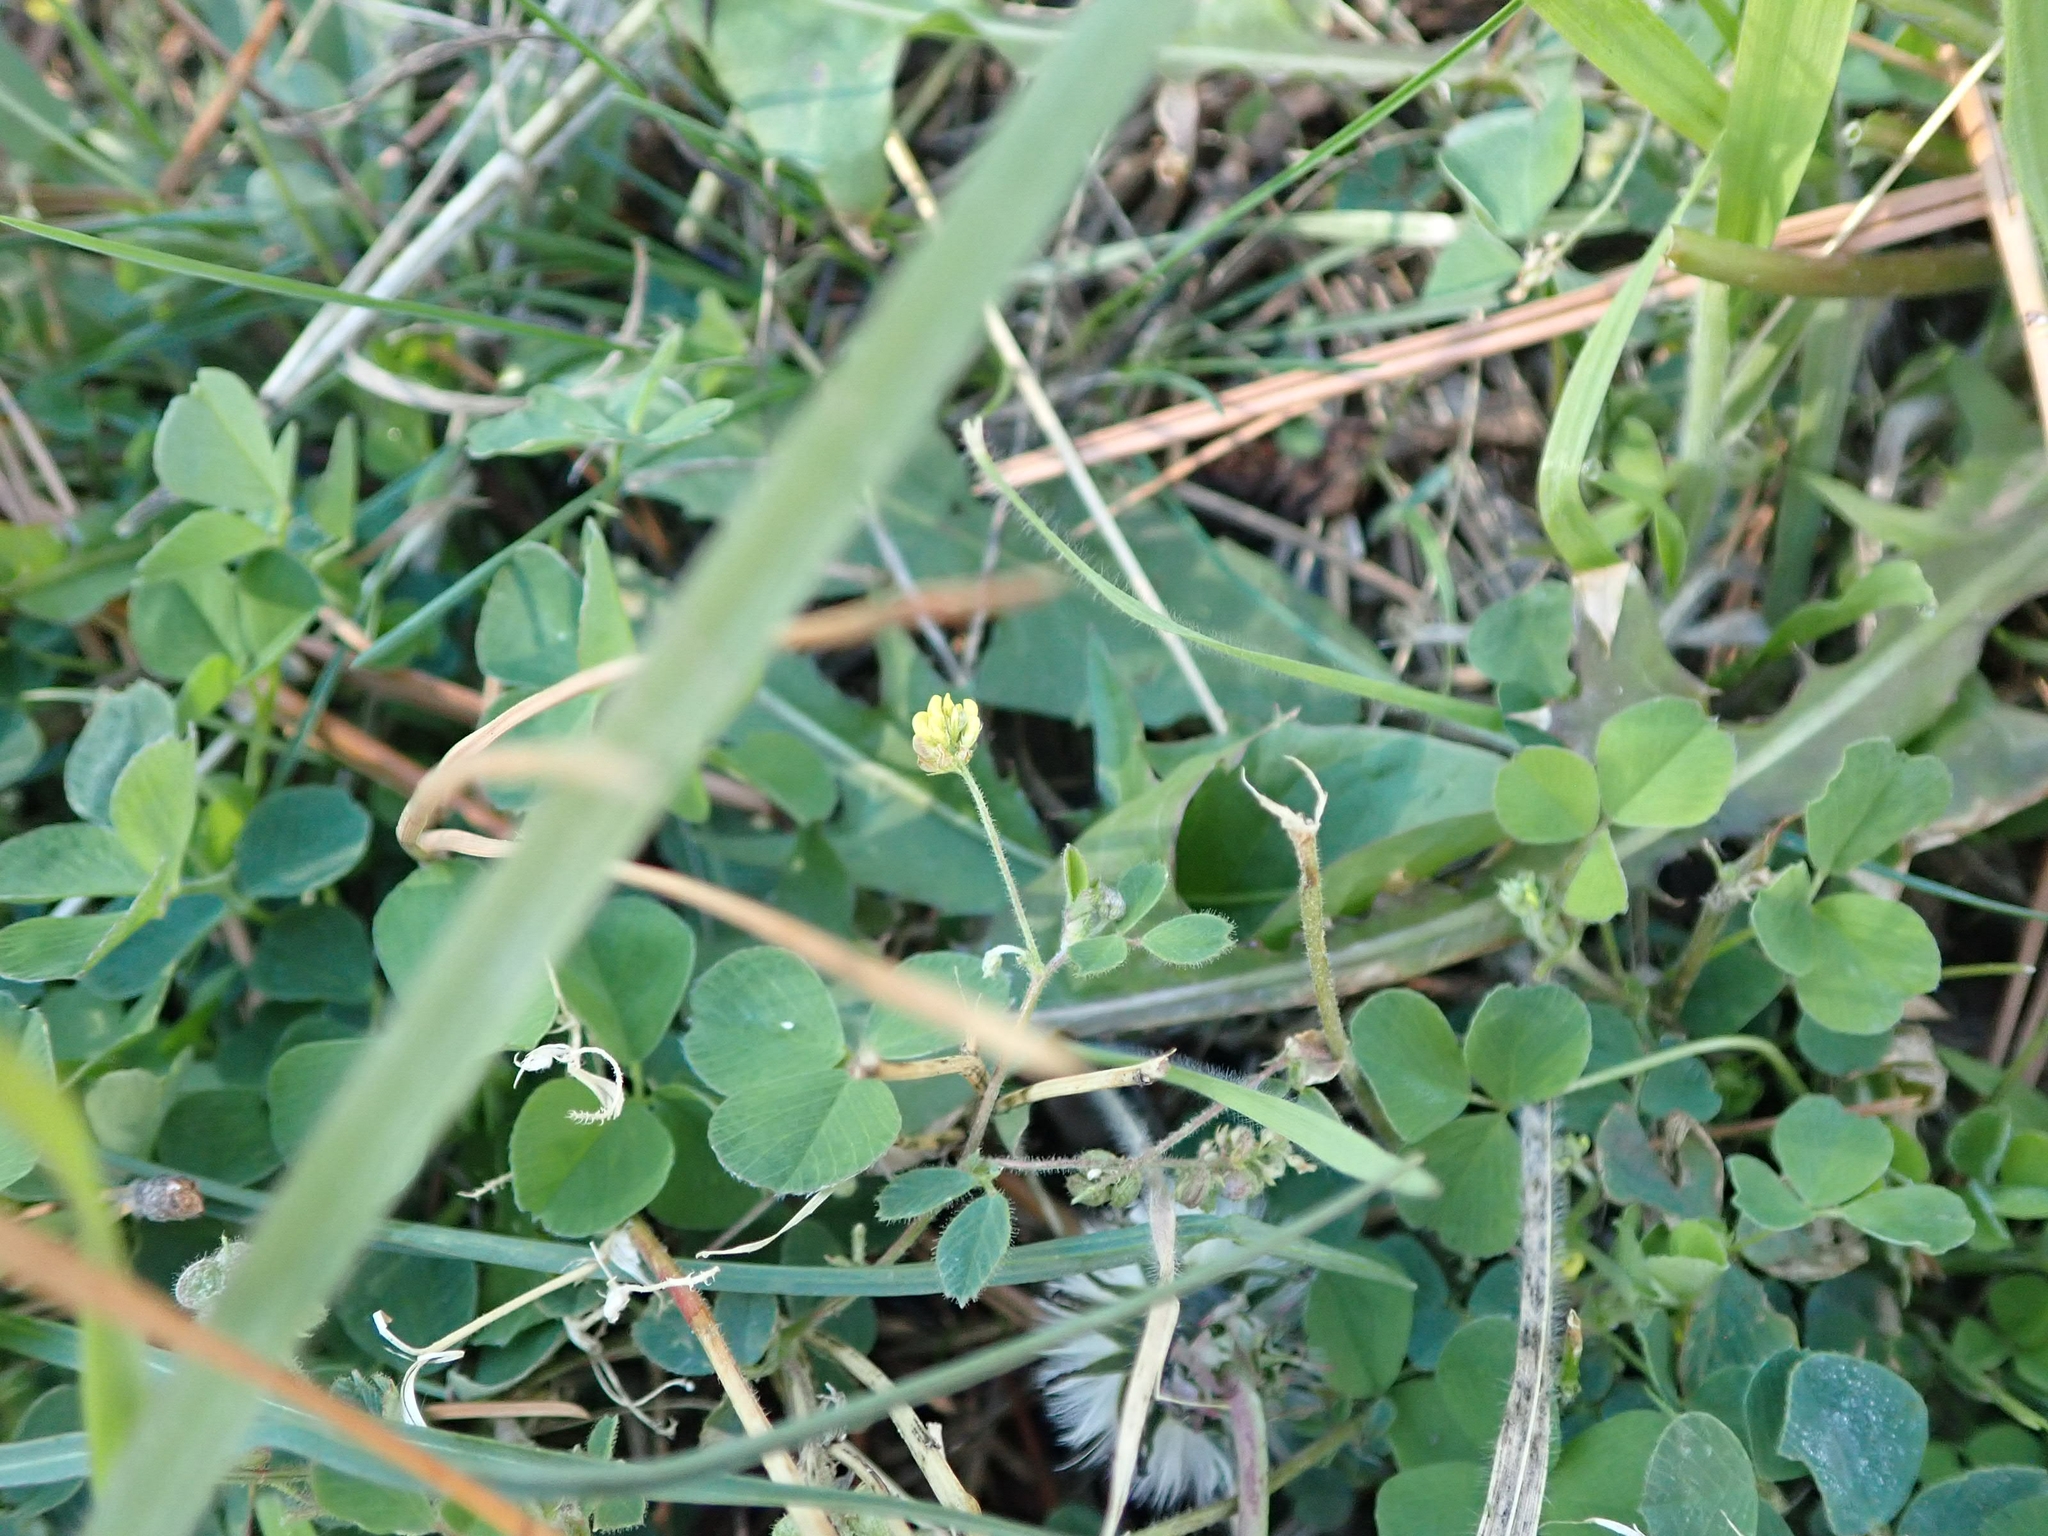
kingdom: Plantae
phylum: Tracheophyta
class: Magnoliopsida
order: Fabales
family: Fabaceae
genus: Medicago
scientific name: Medicago lupulina
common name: Black medick
